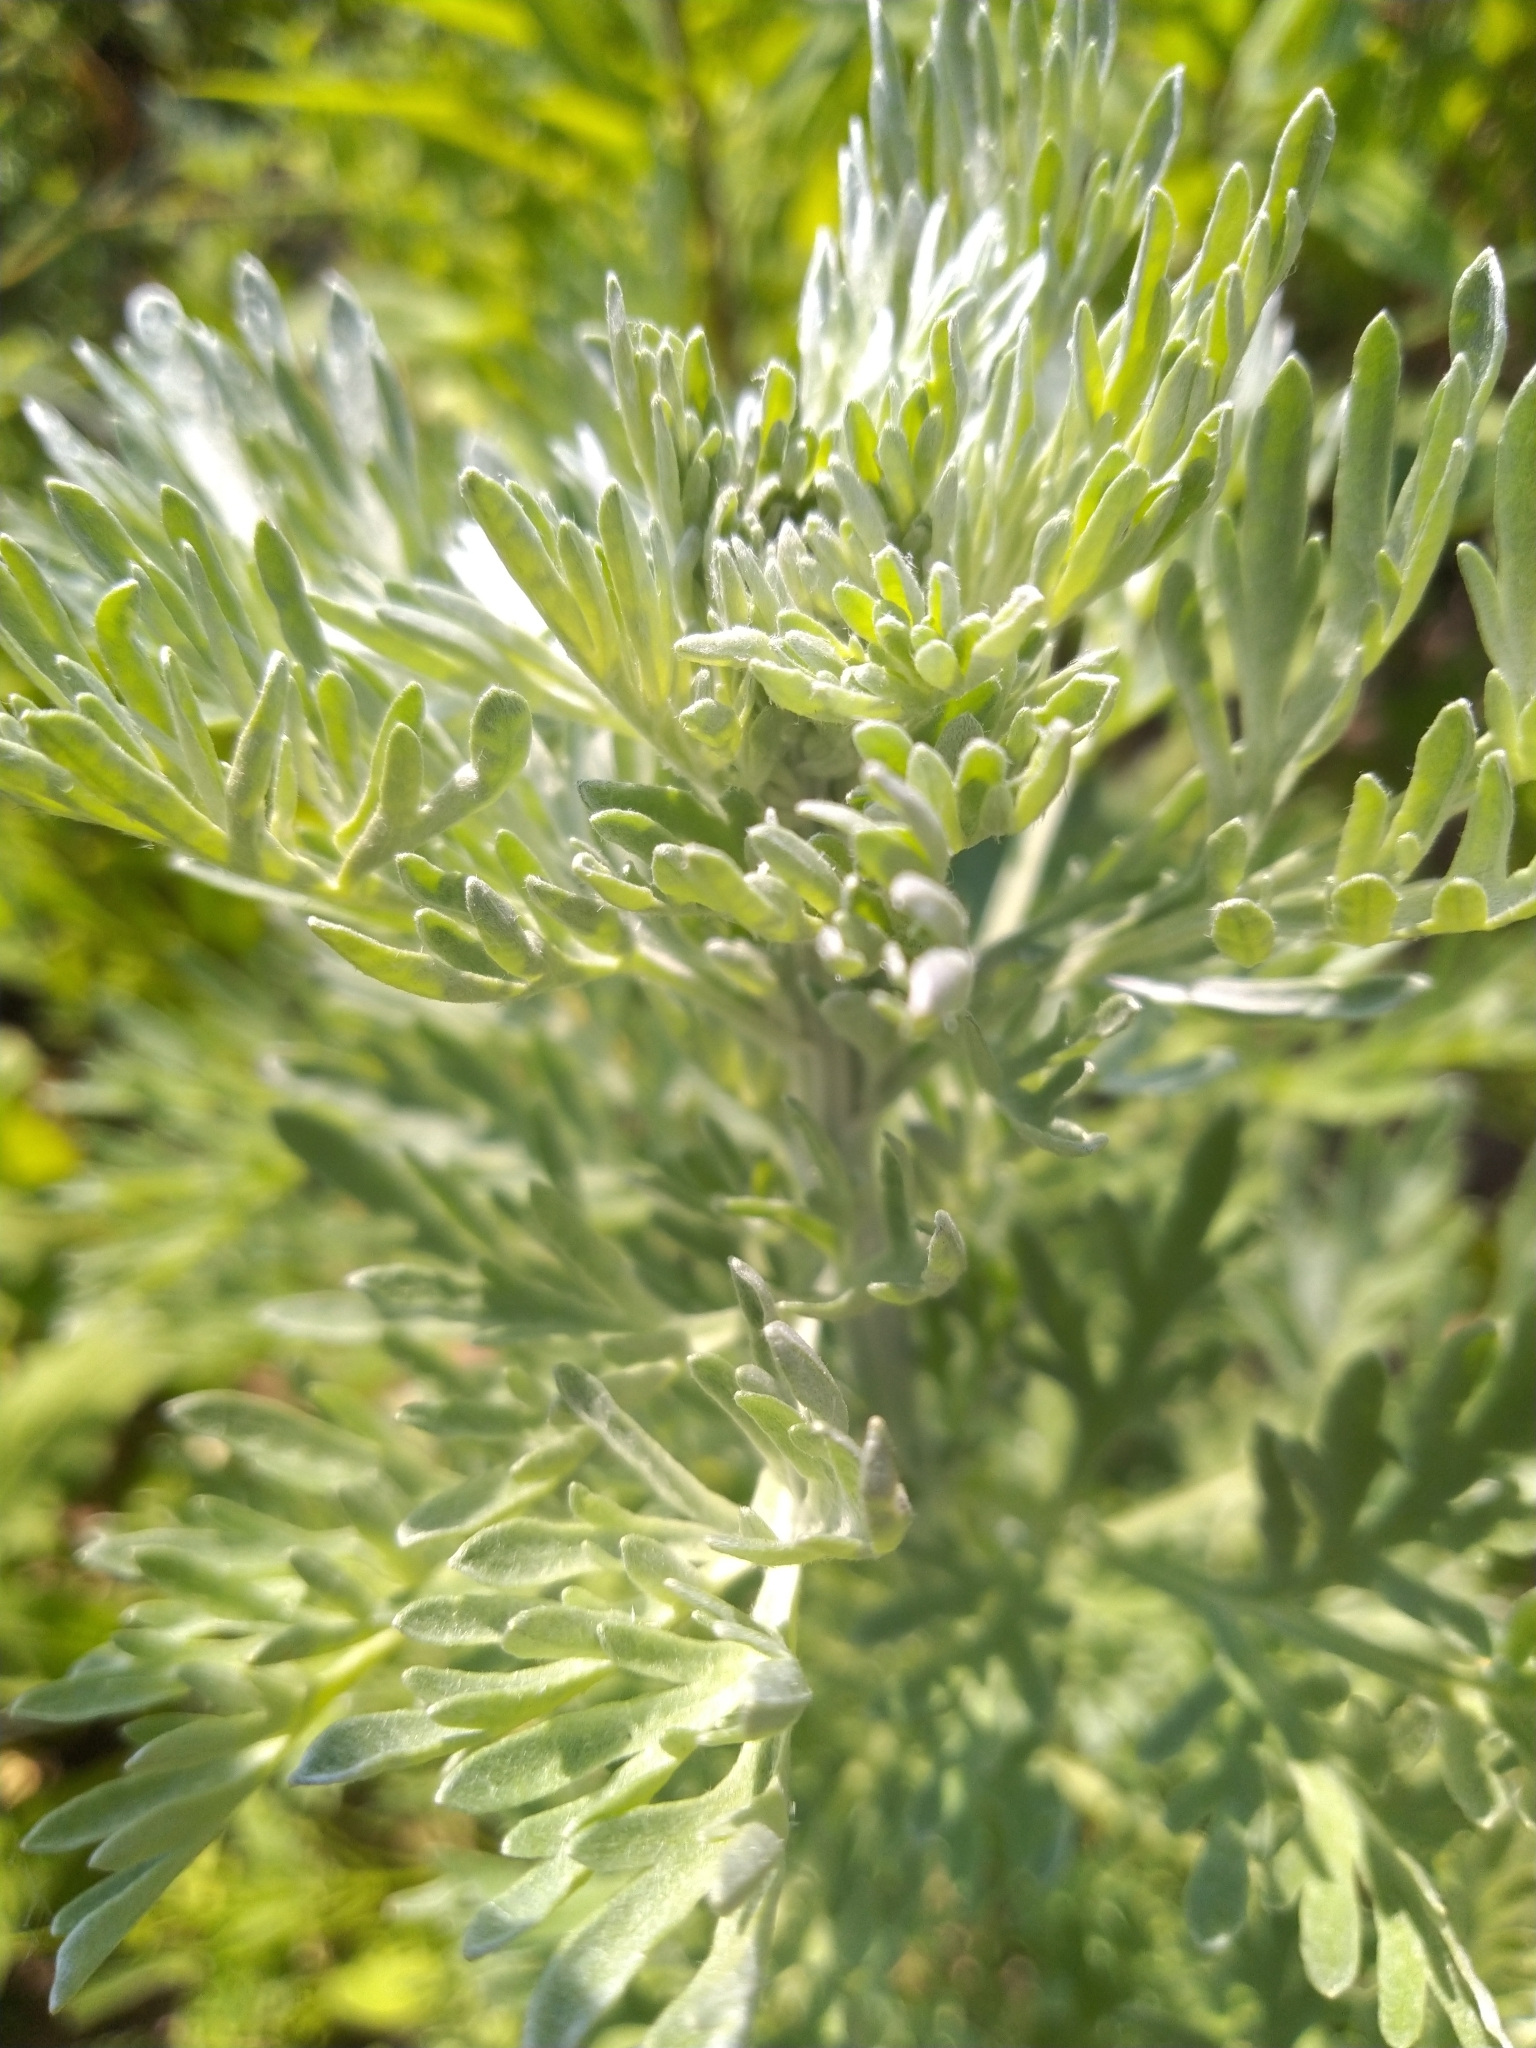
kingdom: Plantae
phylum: Tracheophyta
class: Magnoliopsida
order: Asterales
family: Asteraceae
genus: Artemisia
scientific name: Artemisia absinthium
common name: Wormwood
